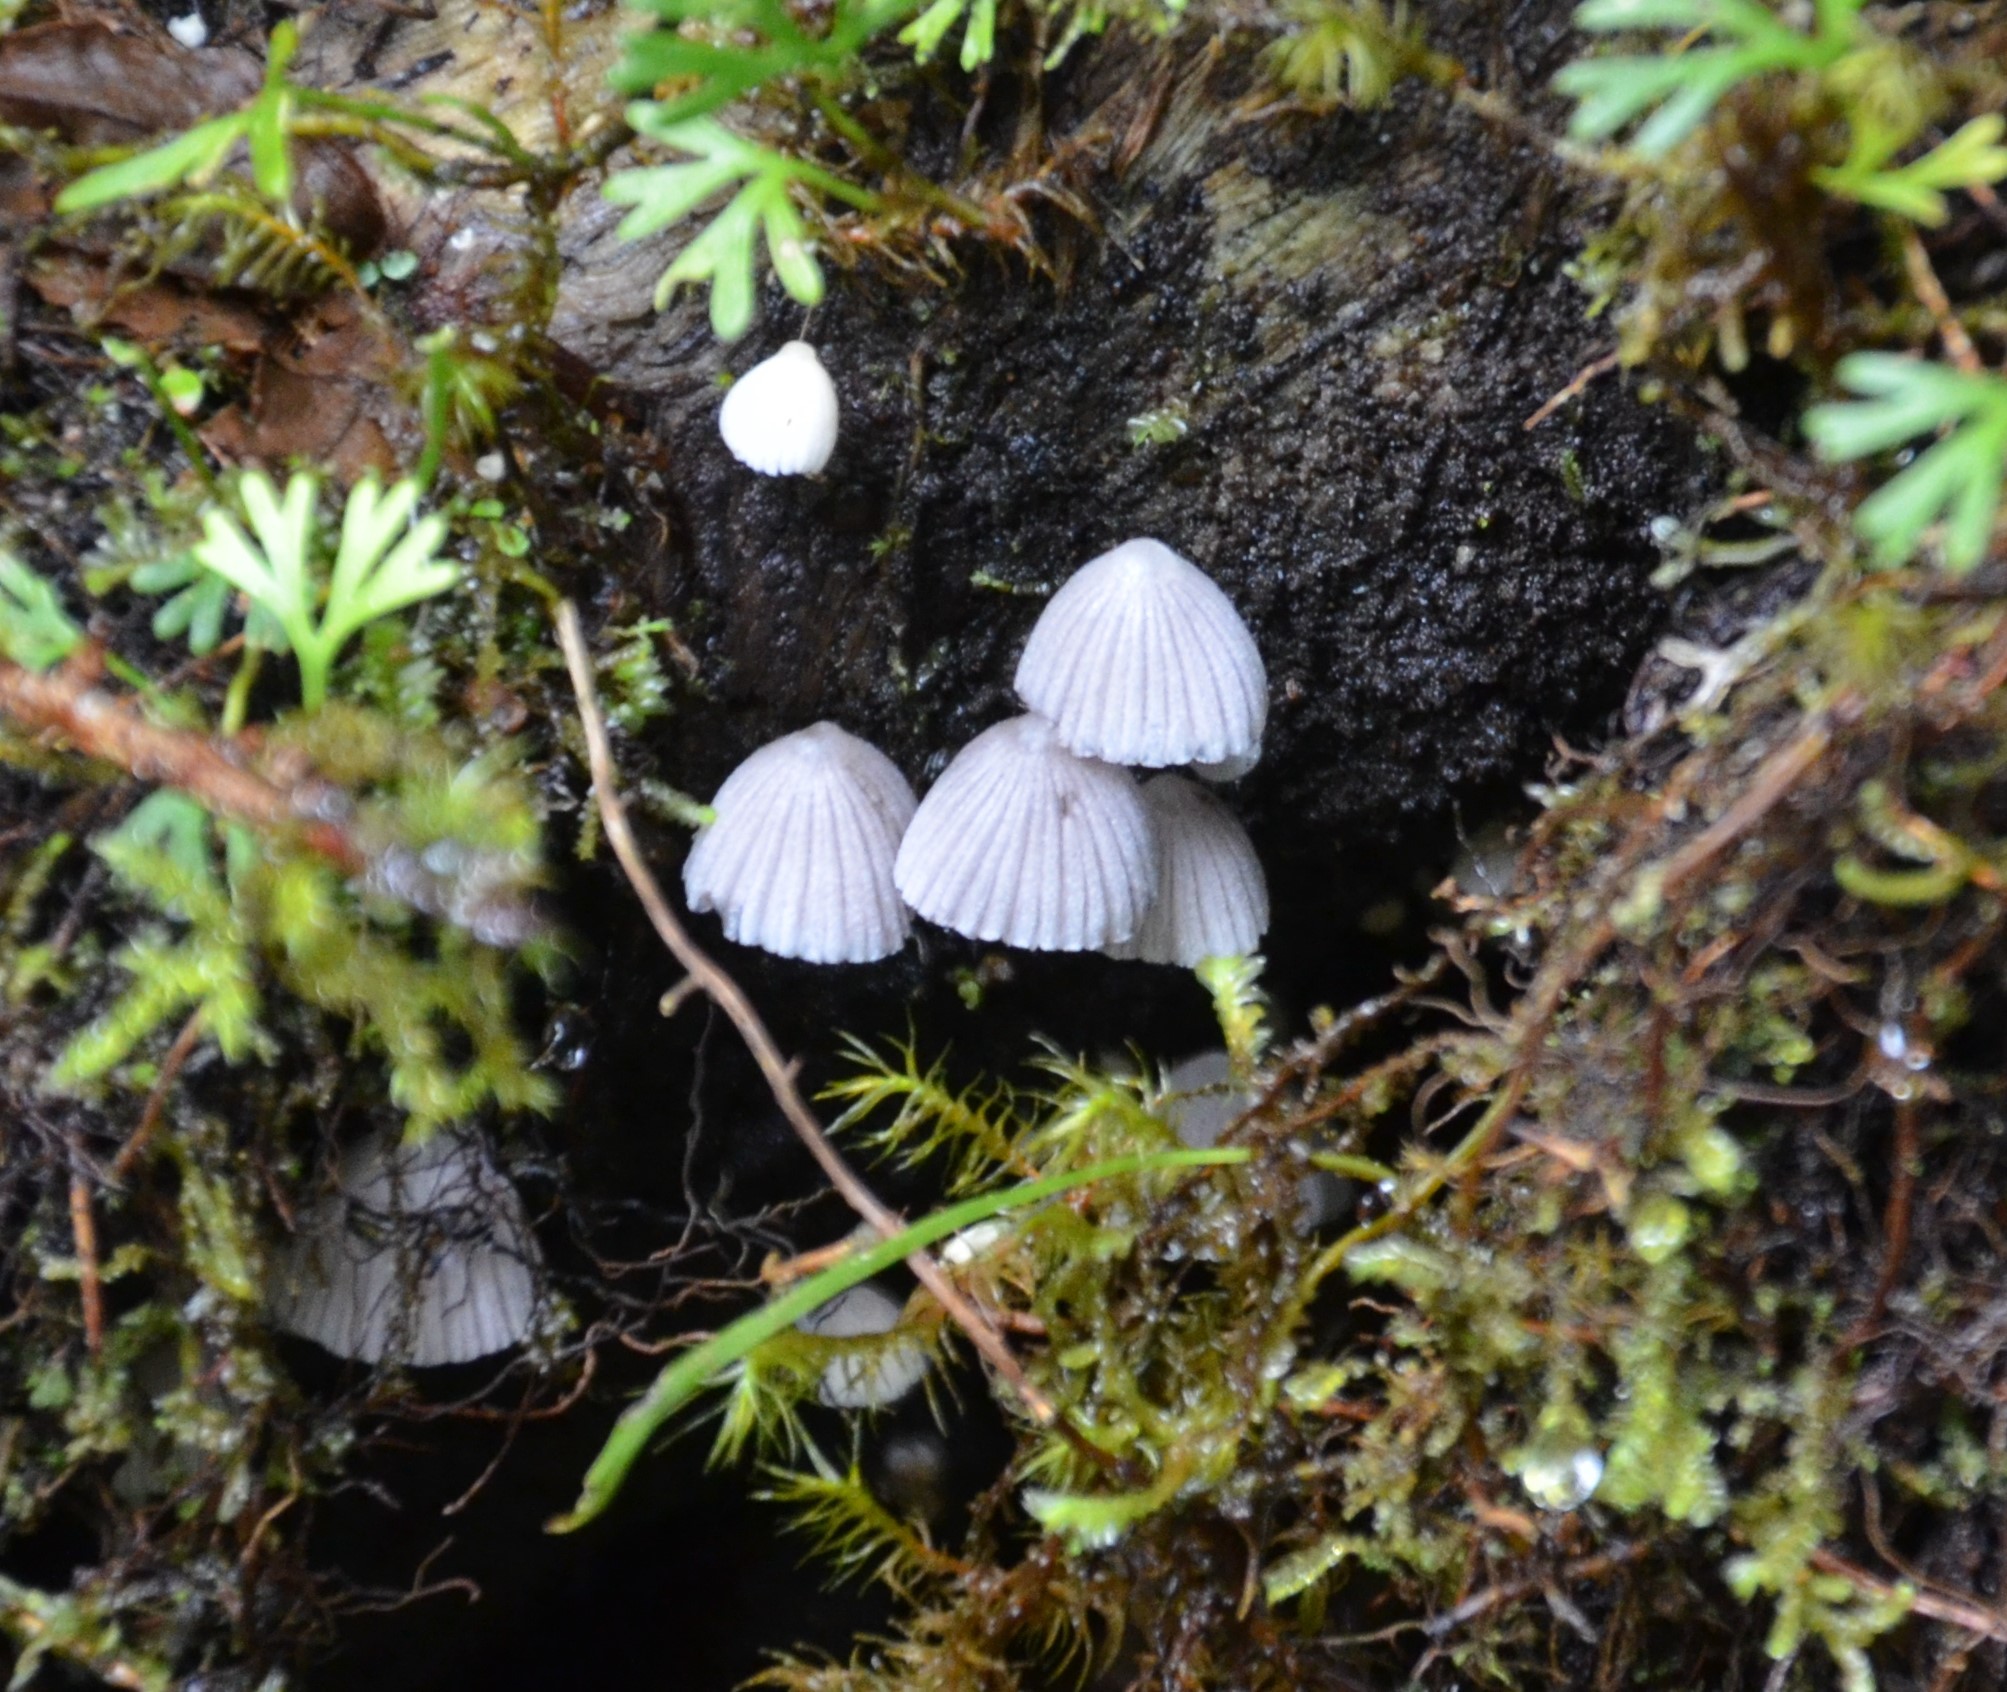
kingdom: Fungi
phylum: Basidiomycota
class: Agaricomycetes
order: Agaricales
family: Psathyrellaceae
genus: Coprinellus
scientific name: Coprinellus disseminatus
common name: Fairies' bonnets
